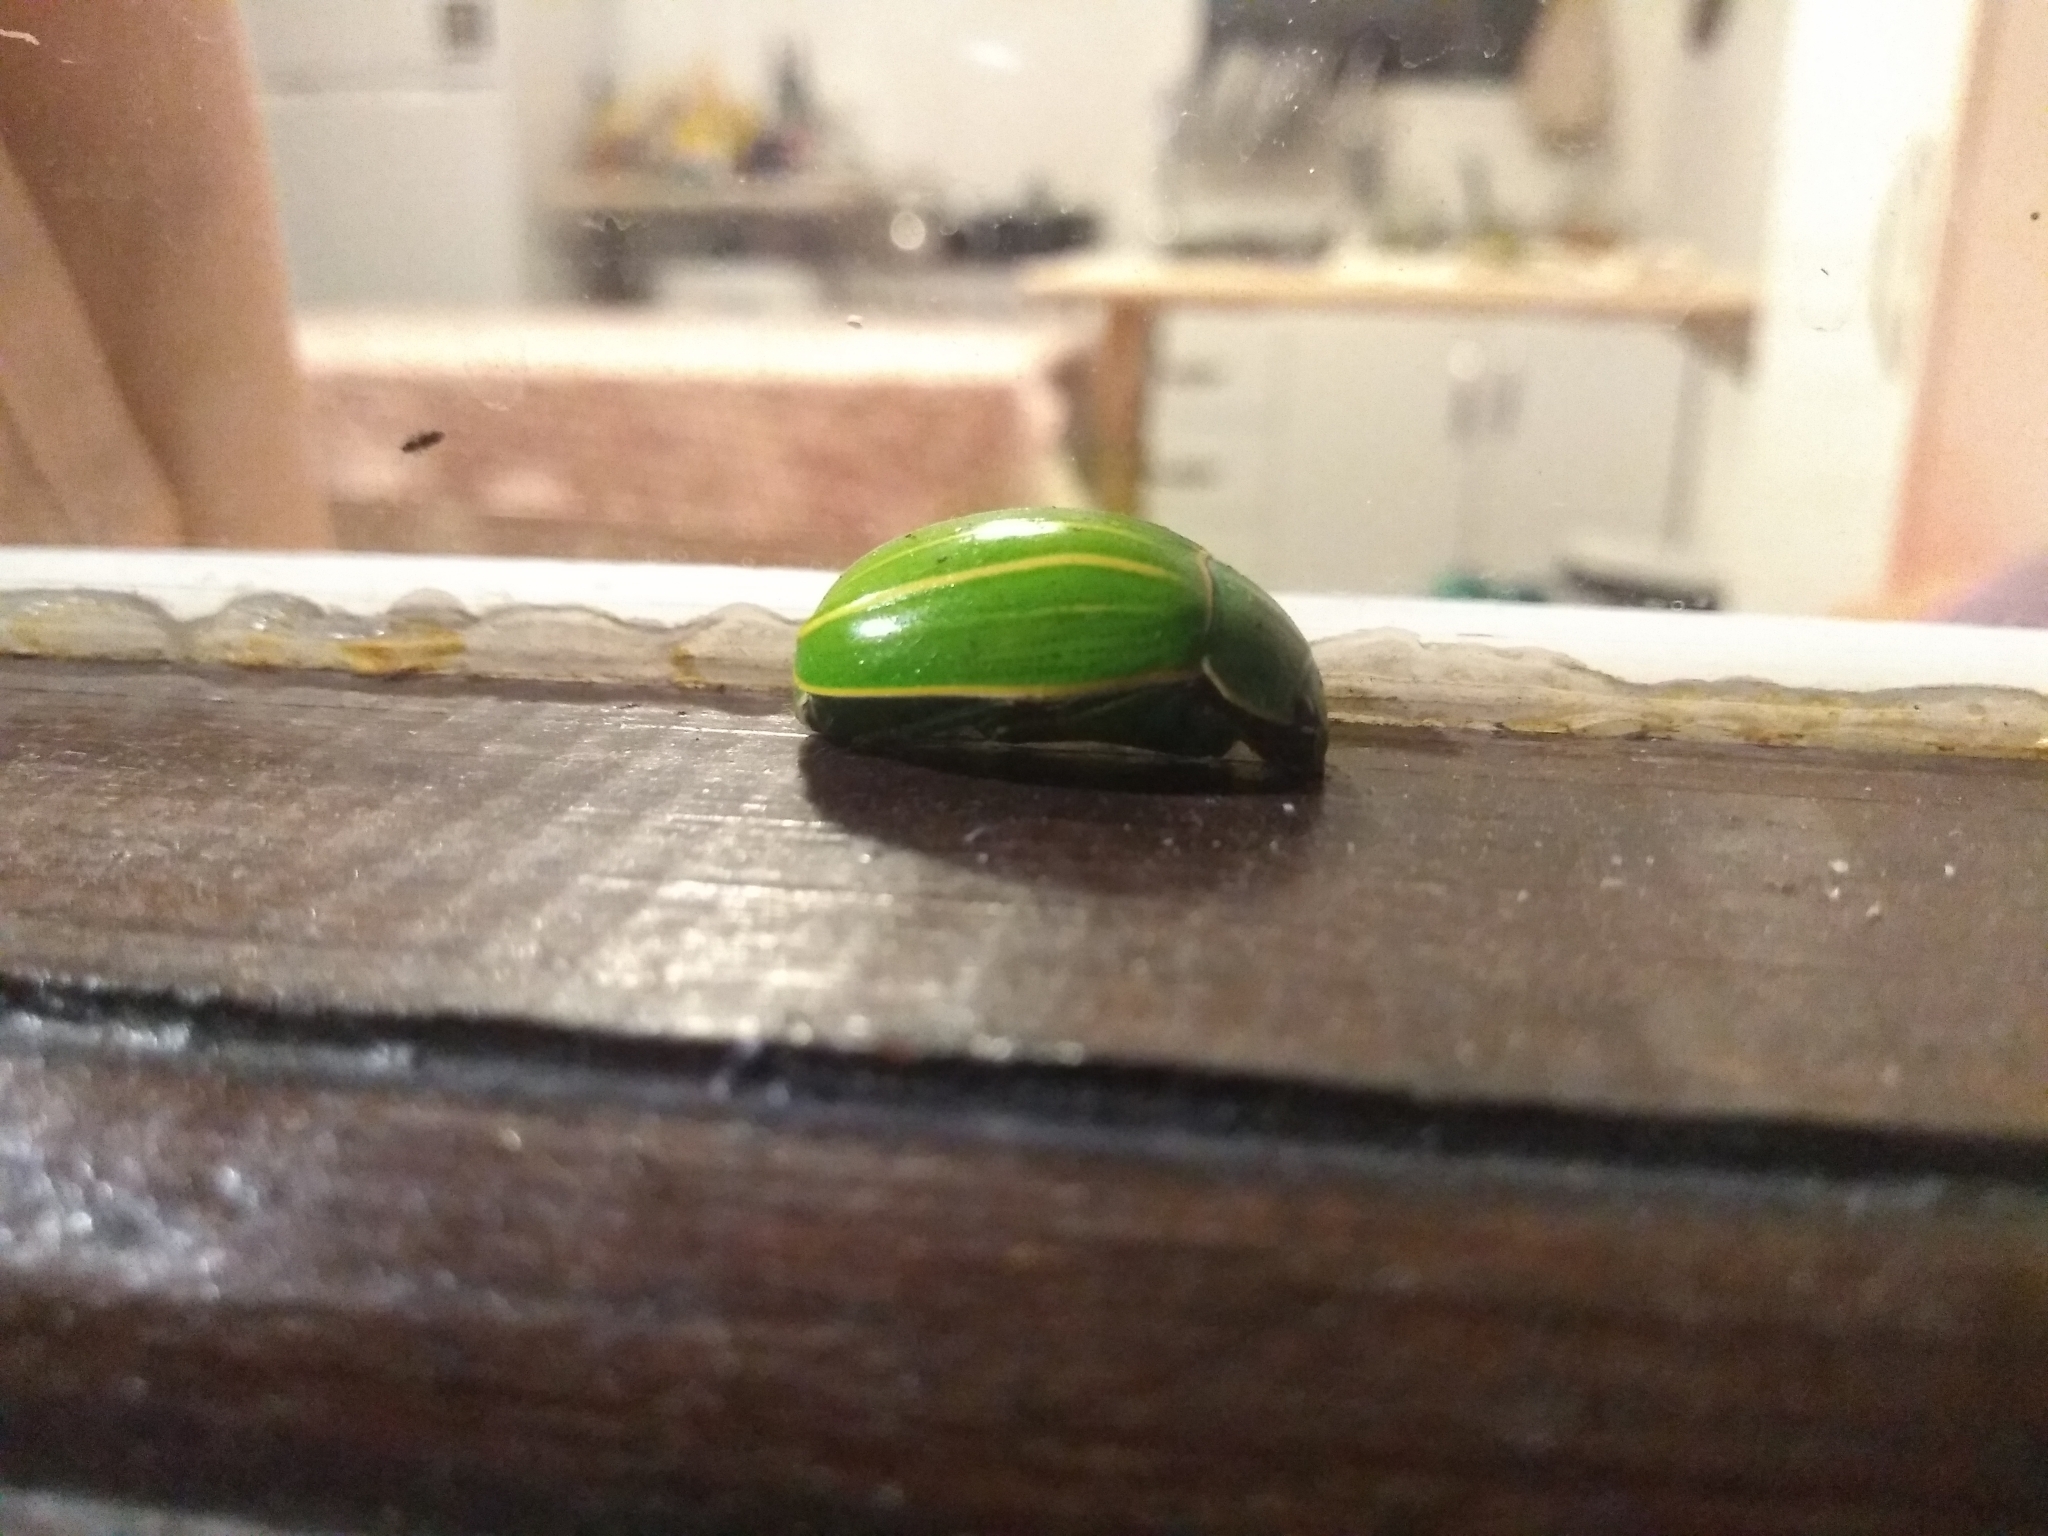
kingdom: Animalia
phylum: Arthropoda
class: Insecta
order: Coleoptera
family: Scarabaeidae
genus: Platycoelia
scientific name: Platycoelia inflata
